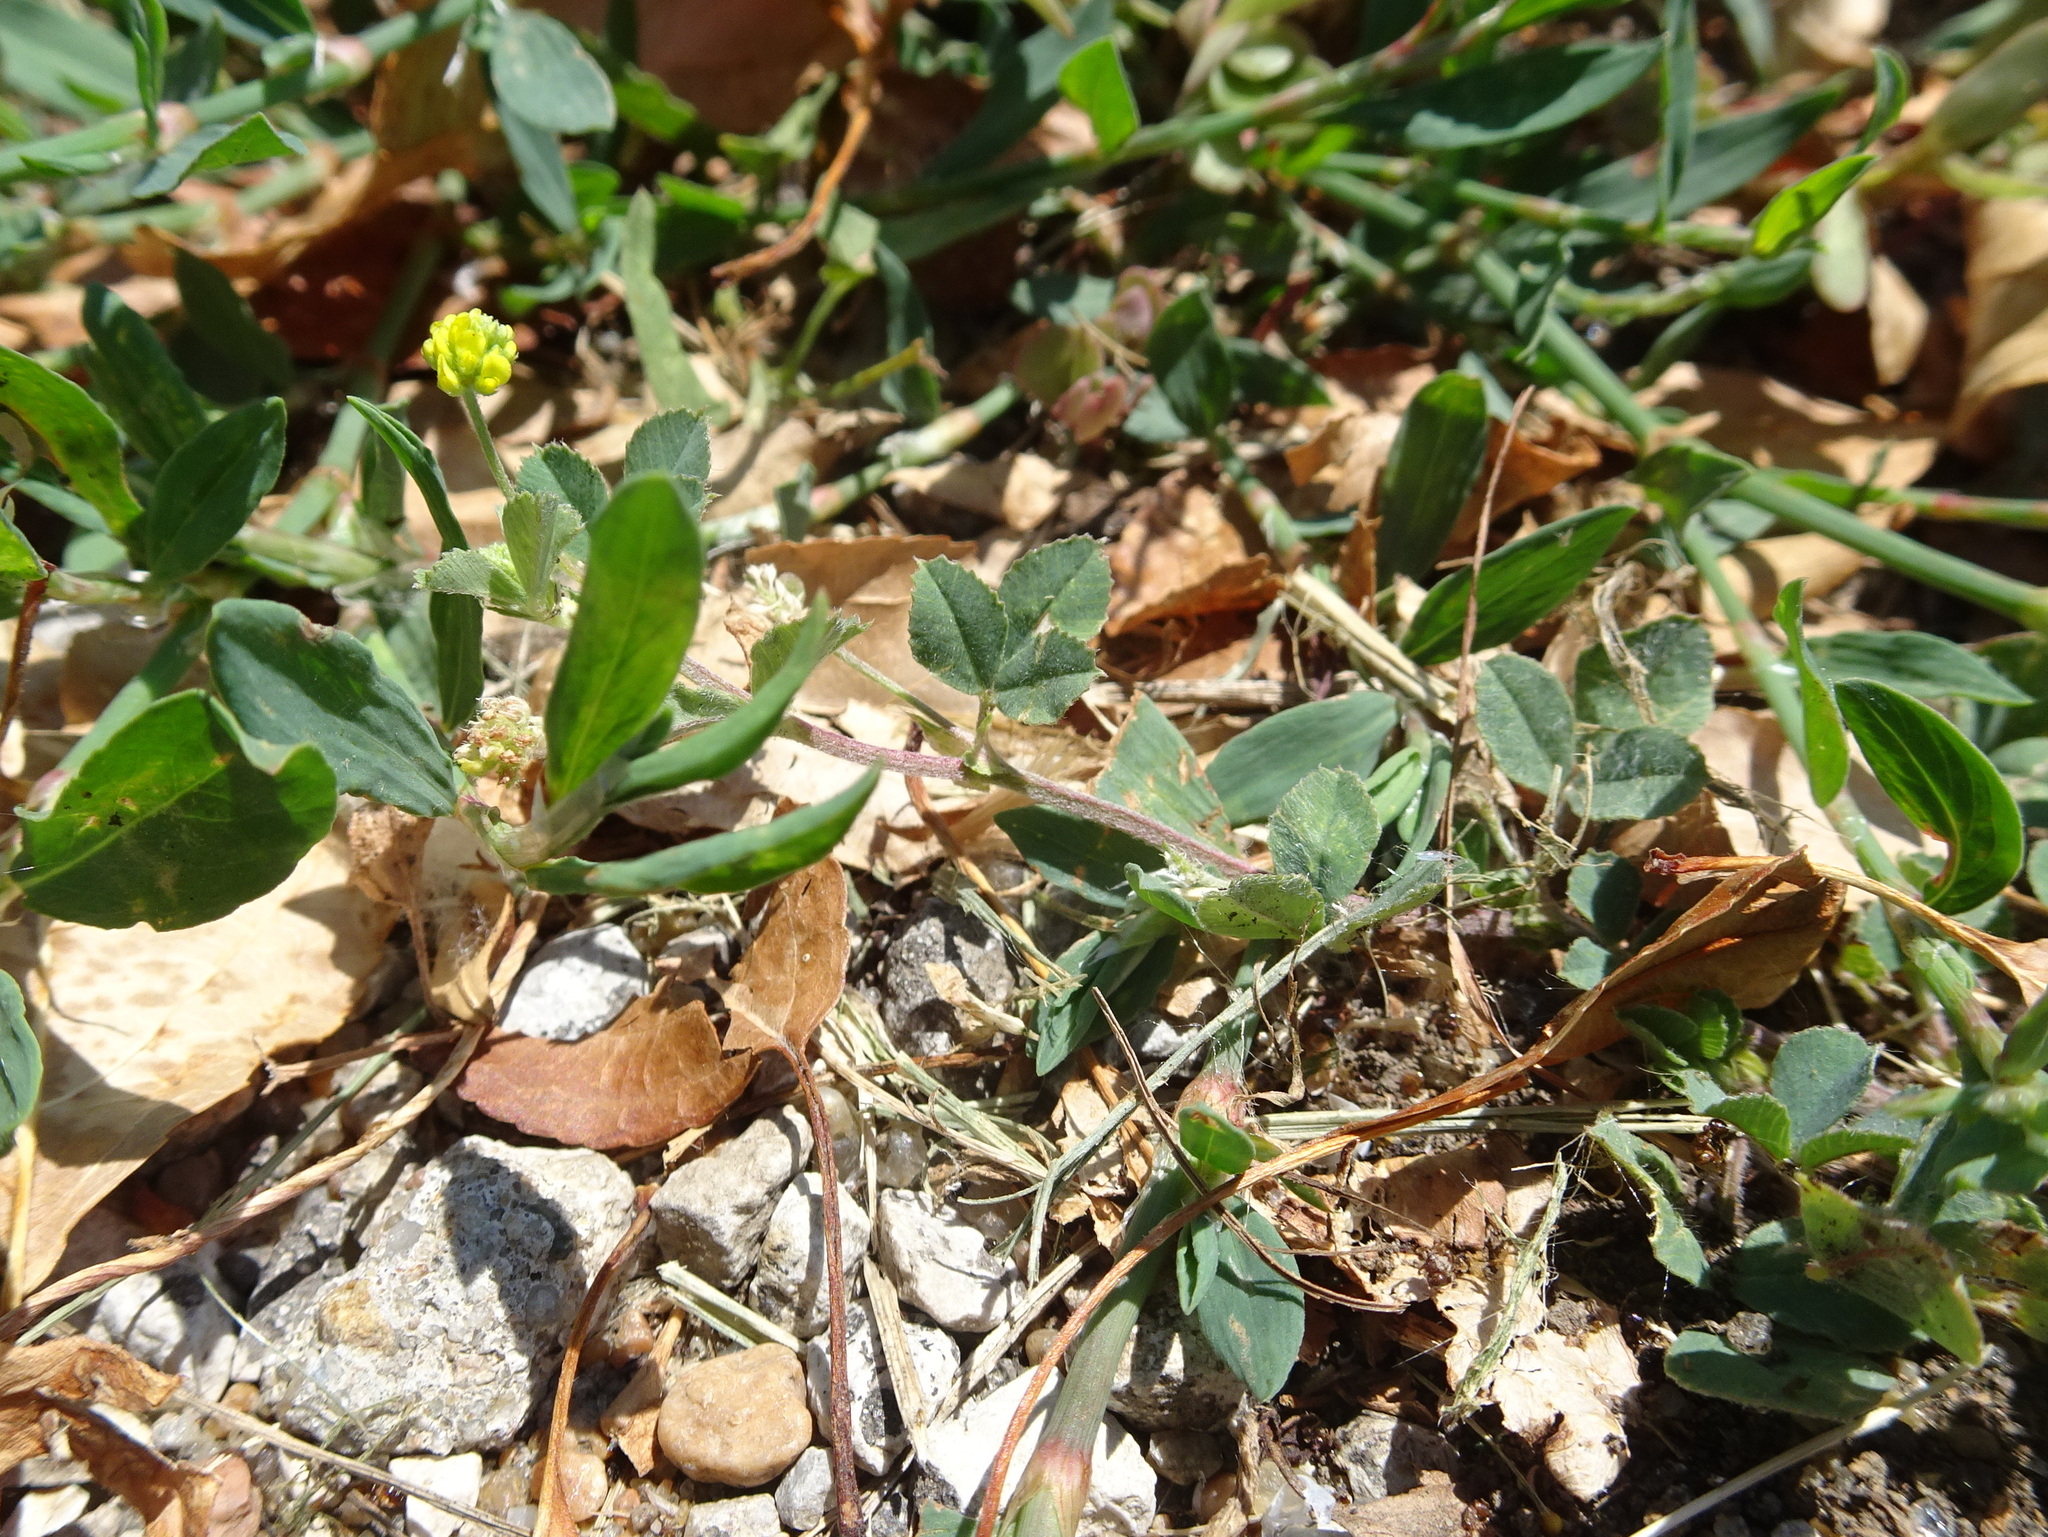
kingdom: Plantae
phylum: Tracheophyta
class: Magnoliopsida
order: Fabales
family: Fabaceae
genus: Medicago
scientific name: Medicago lupulina
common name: Black medick
